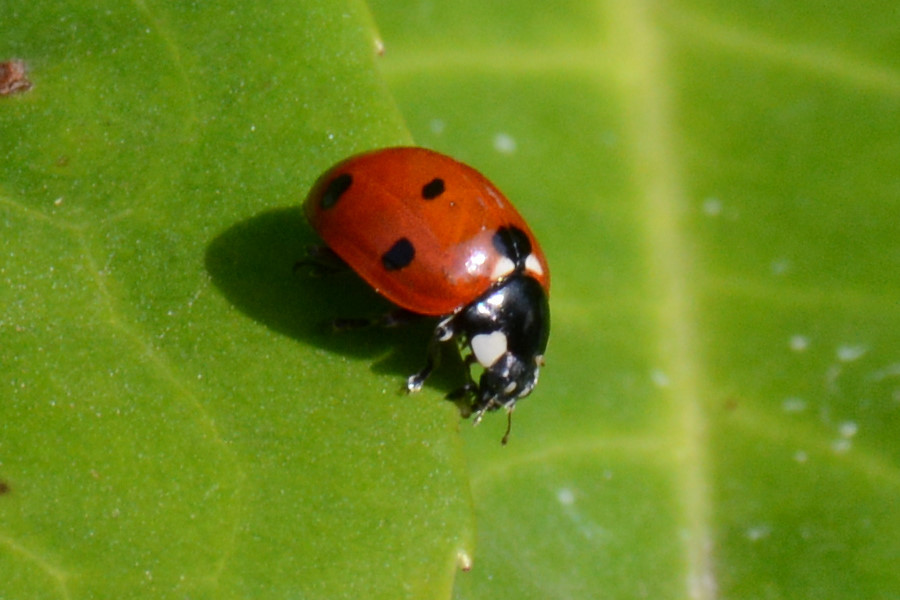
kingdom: Animalia
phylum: Arthropoda
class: Insecta
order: Coleoptera
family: Coccinellidae
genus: Coccinella
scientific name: Coccinella septempunctata
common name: Sevenspotted lady beetle
